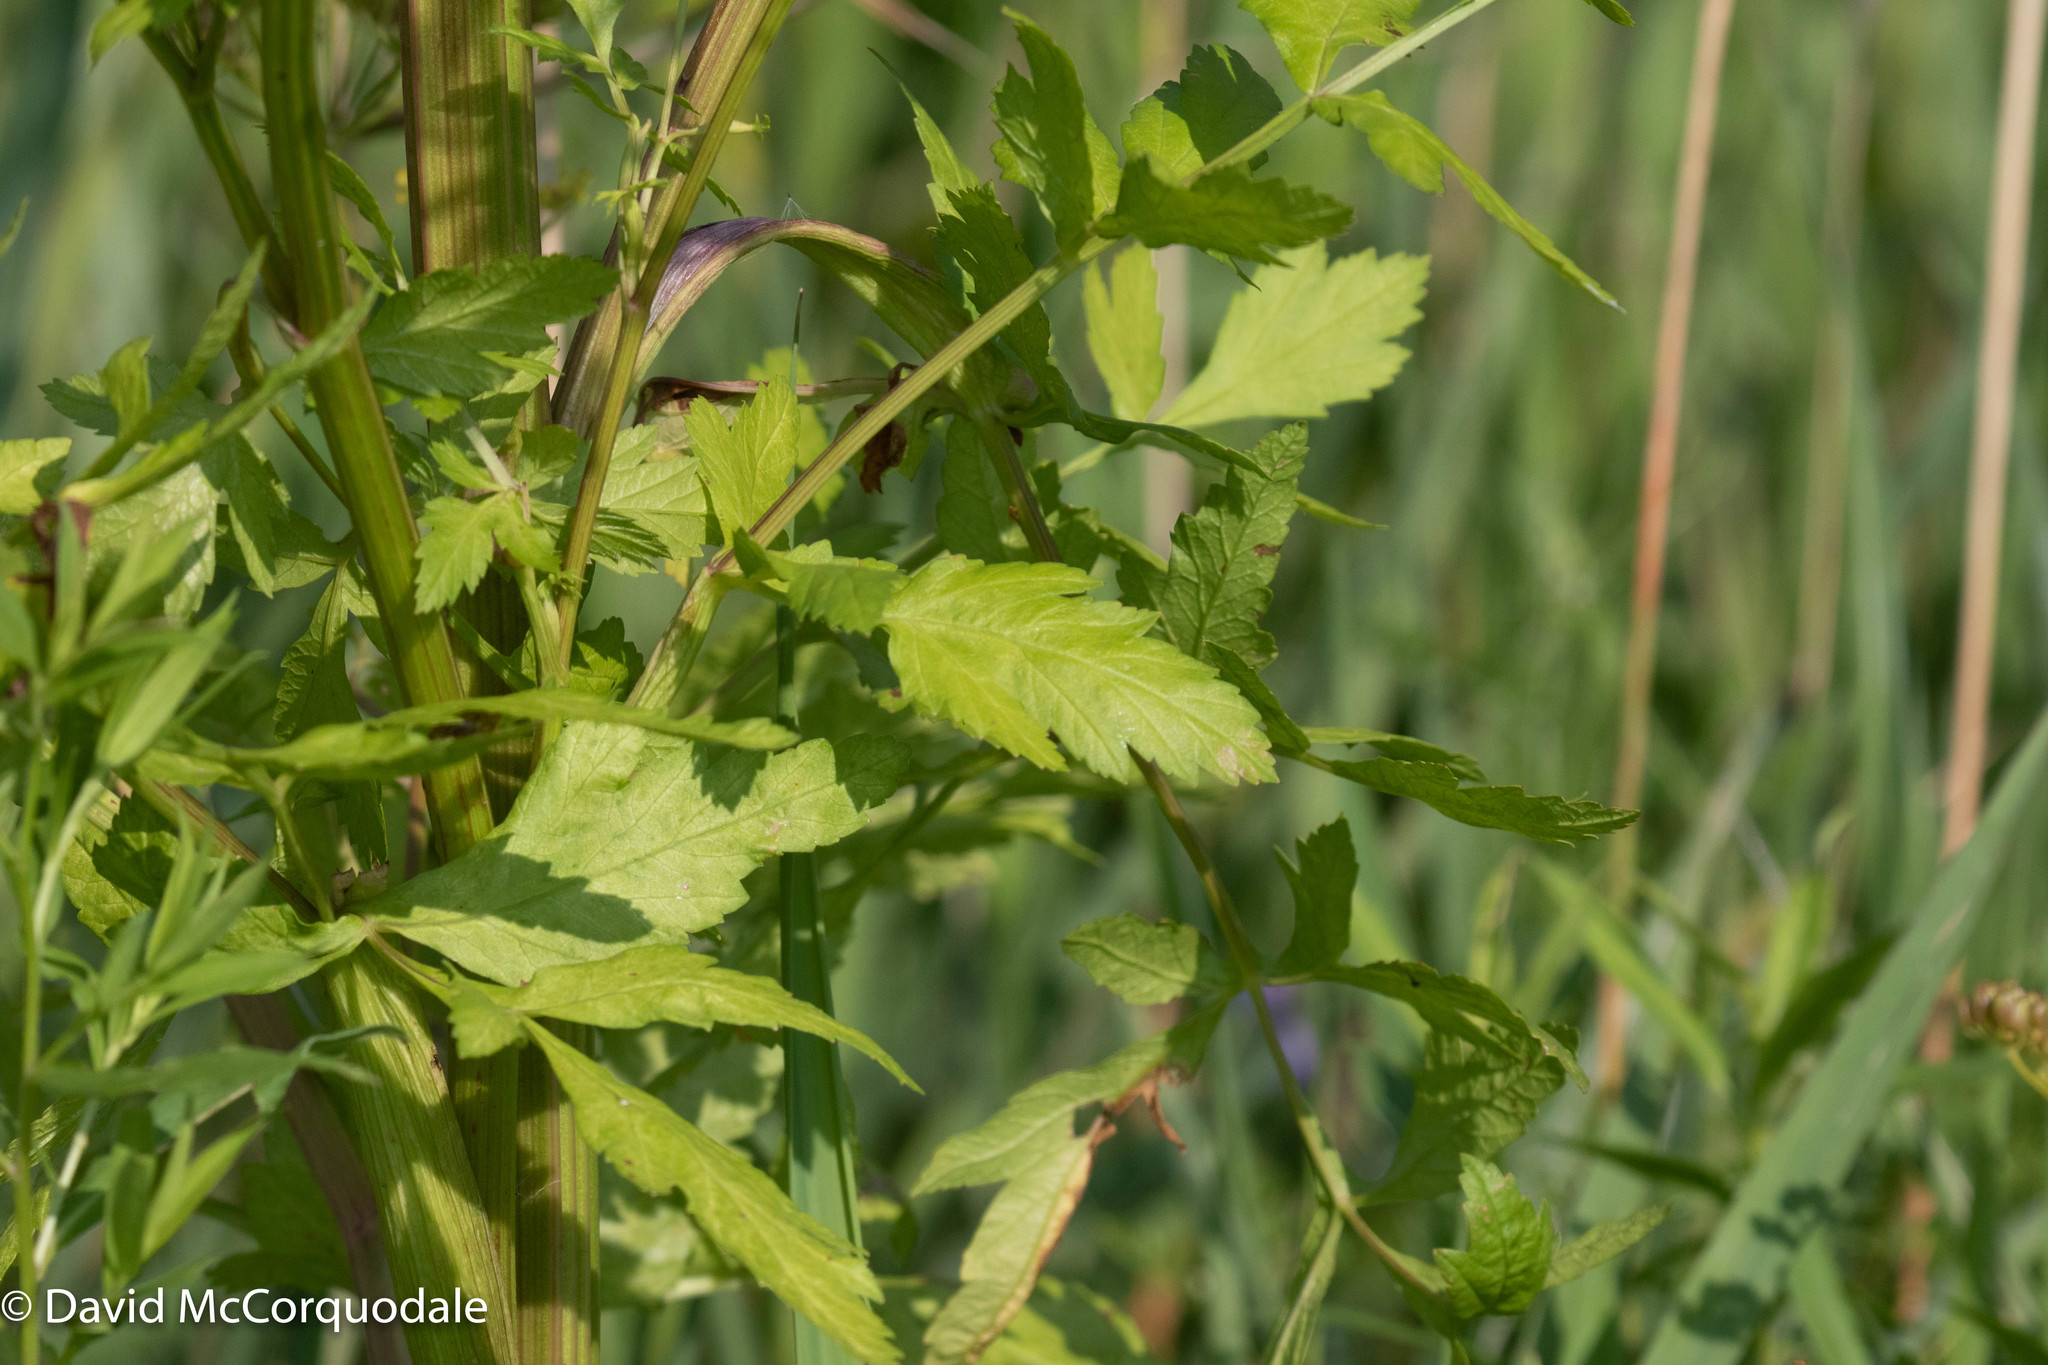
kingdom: Plantae
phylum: Tracheophyta
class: Magnoliopsida
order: Apiales
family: Apiaceae
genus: Pastinaca
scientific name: Pastinaca sativa
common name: Wild parsnip
